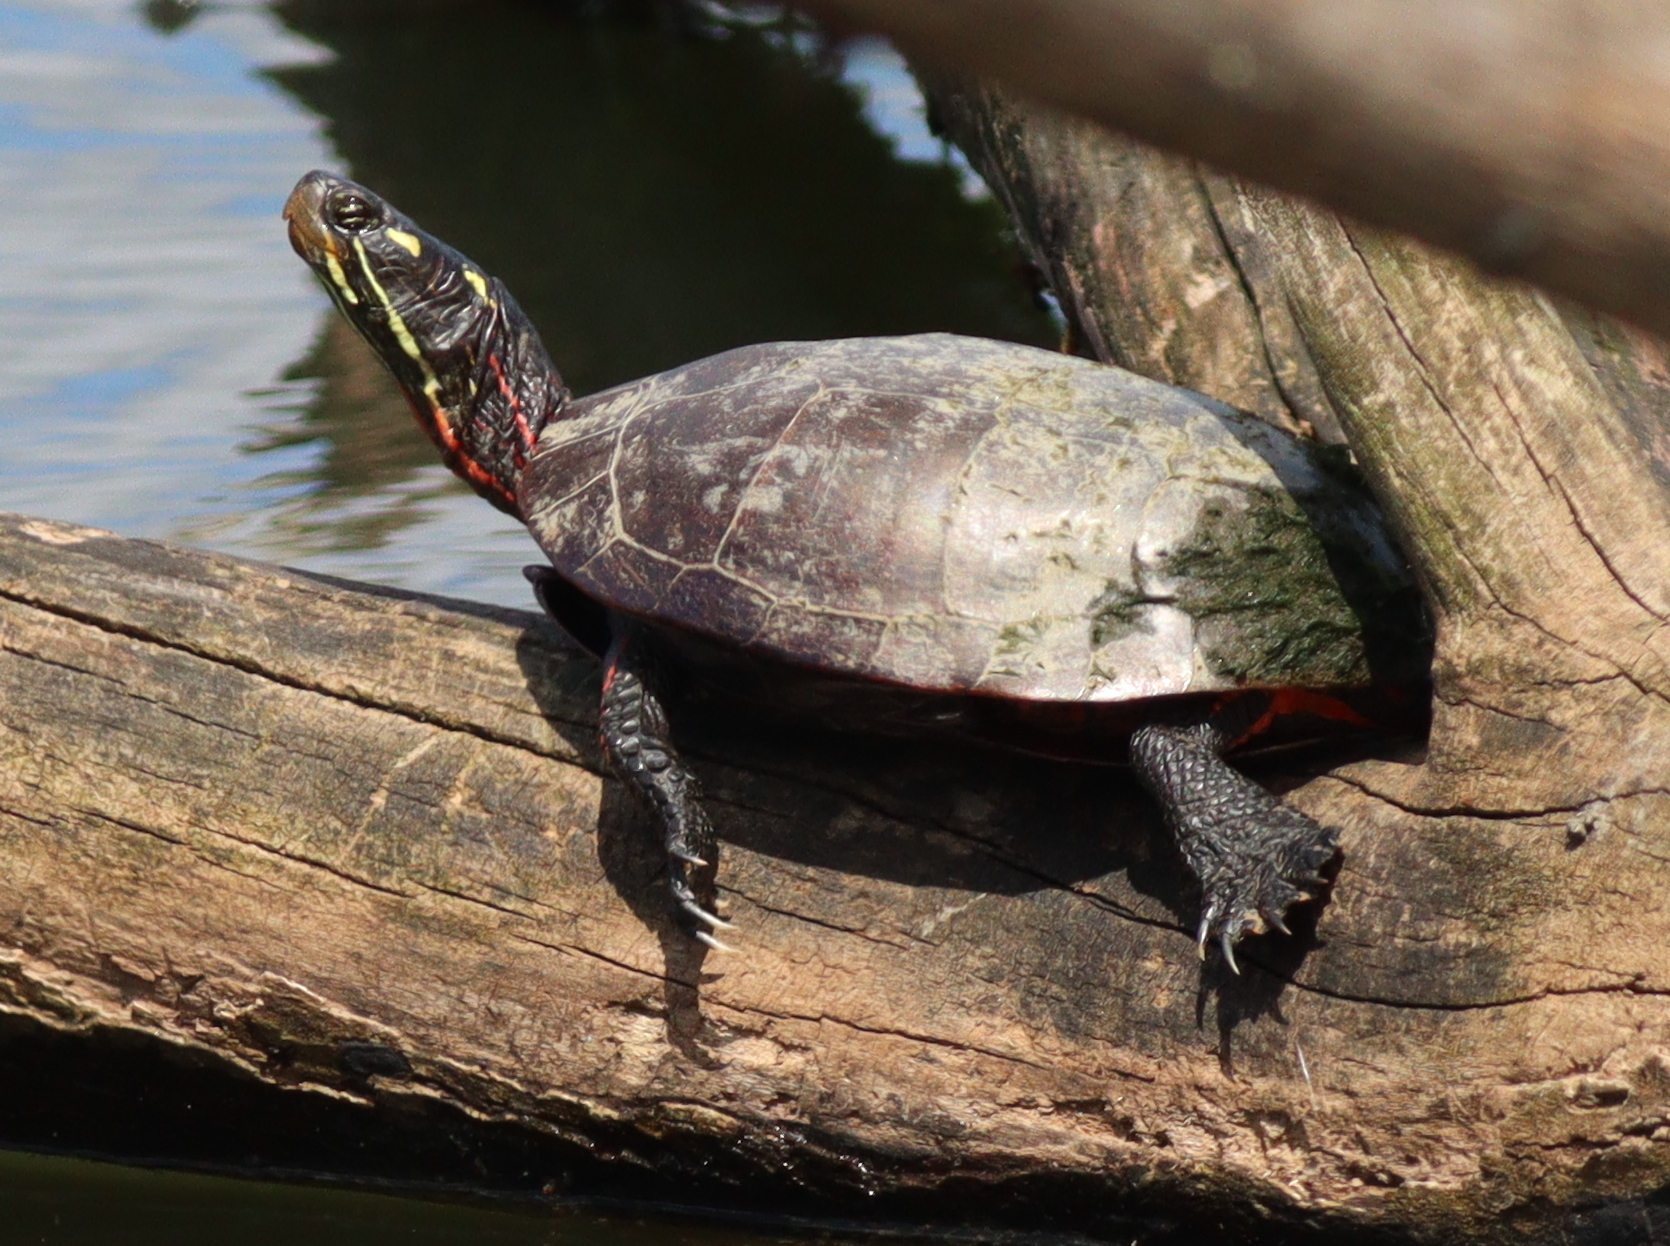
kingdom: Animalia
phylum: Chordata
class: Testudines
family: Emydidae
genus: Chrysemys
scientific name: Chrysemys picta
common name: Painted turtle
